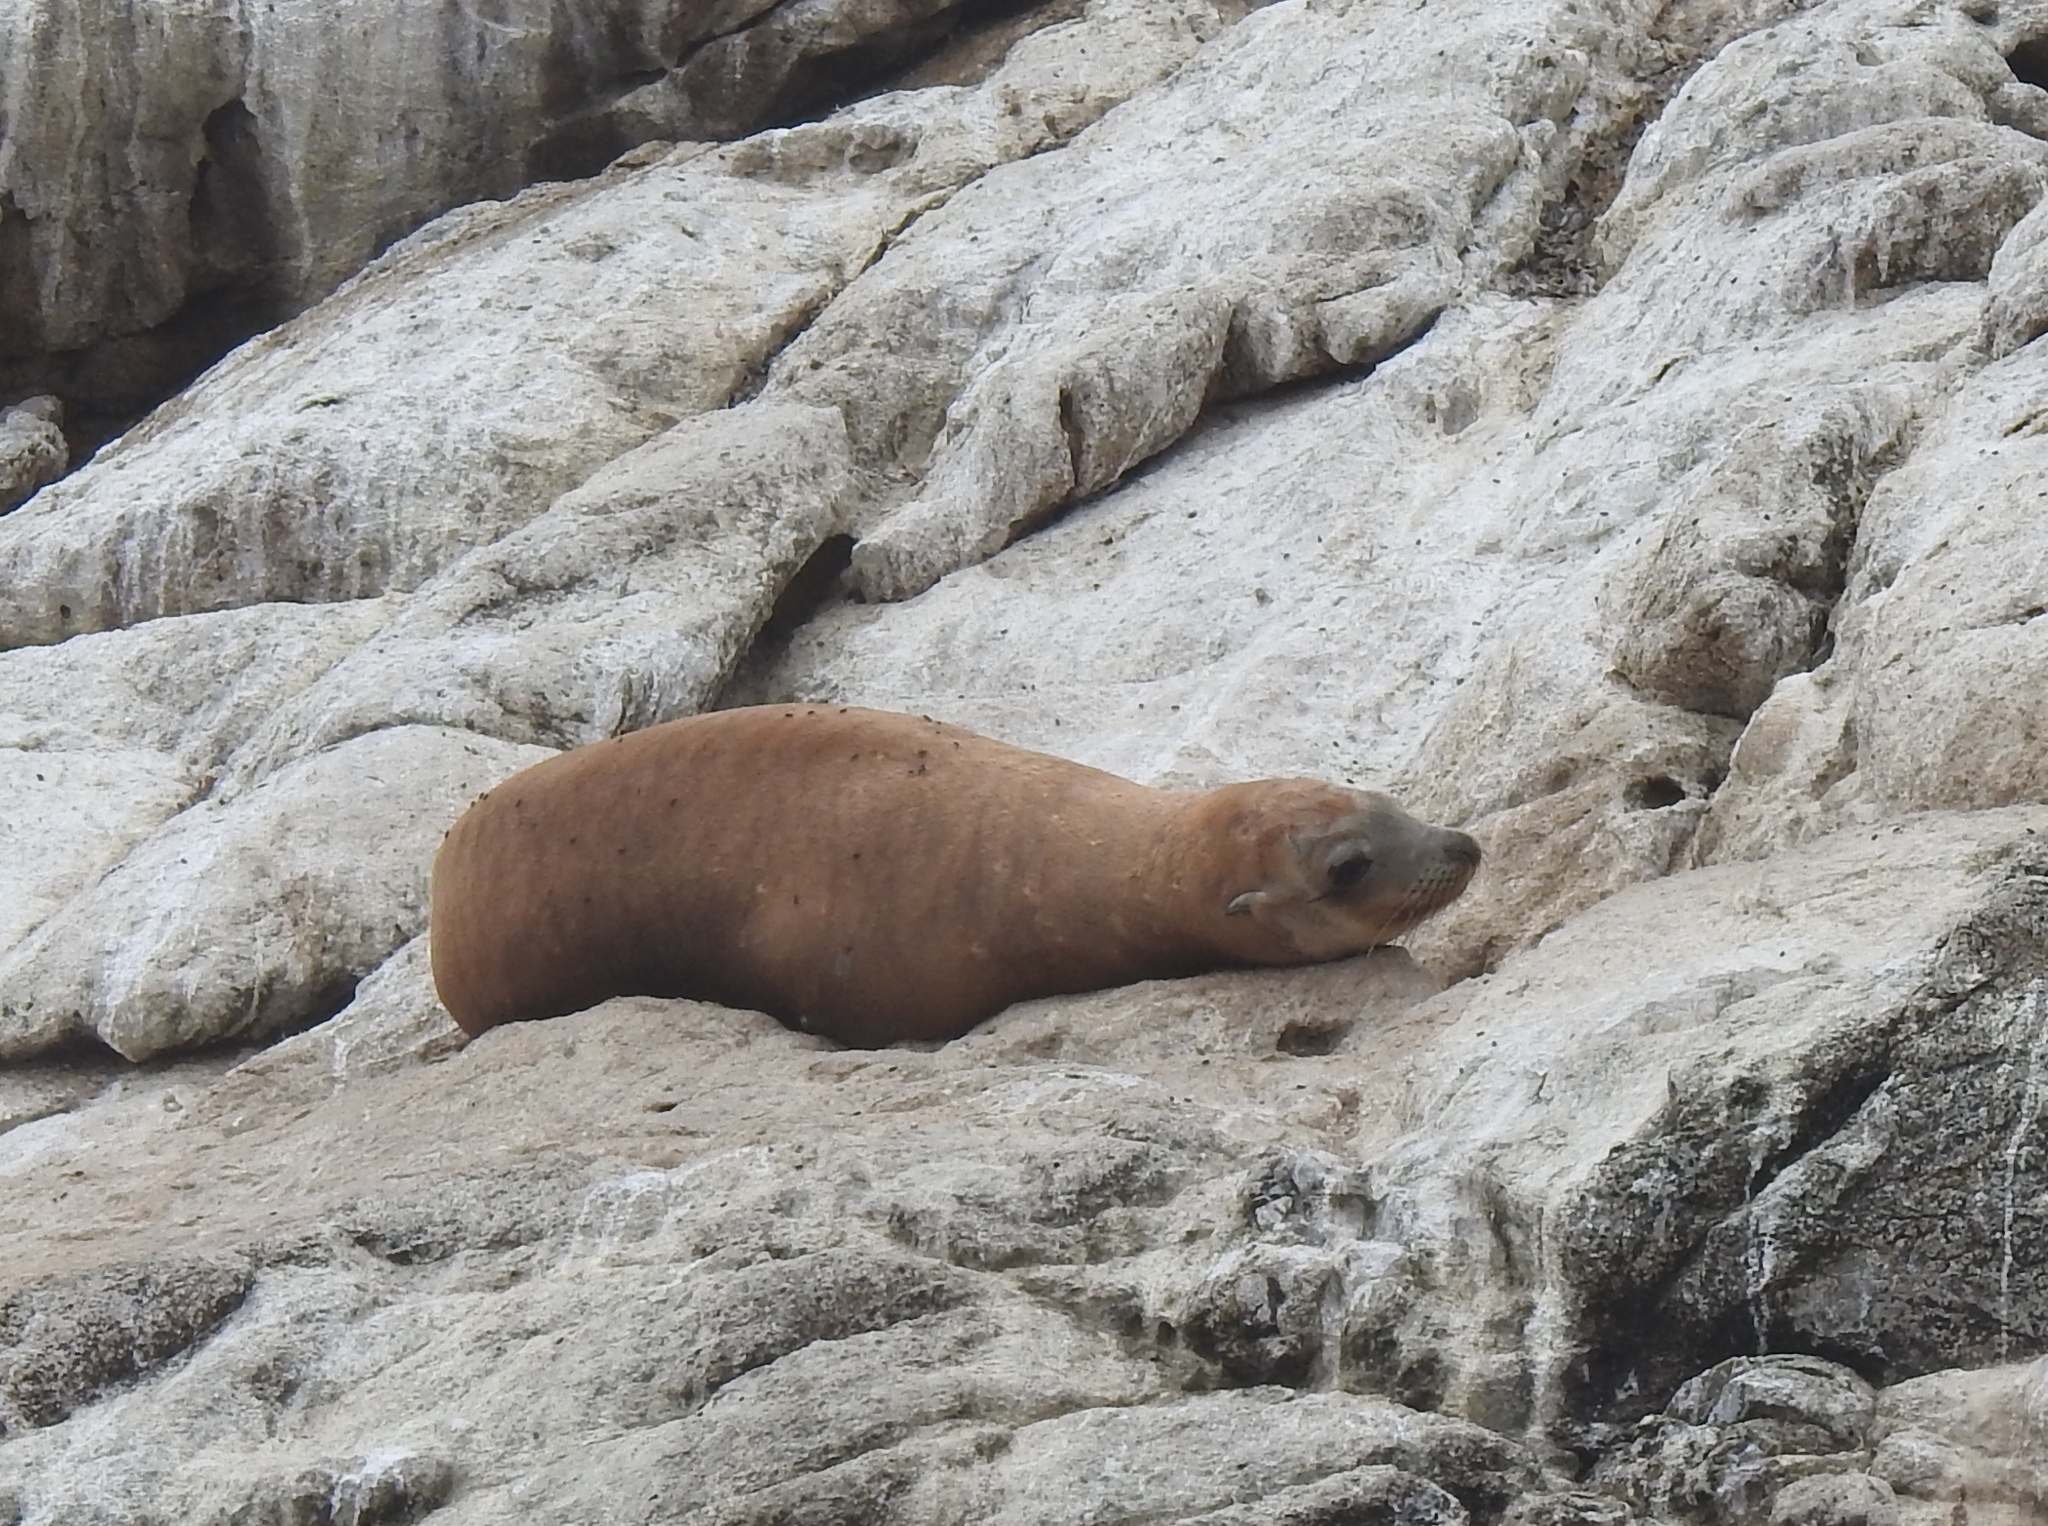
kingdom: Animalia
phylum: Chordata
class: Mammalia
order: Carnivora
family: Otariidae
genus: Zalophus
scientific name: Zalophus californianus
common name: California sea lion
